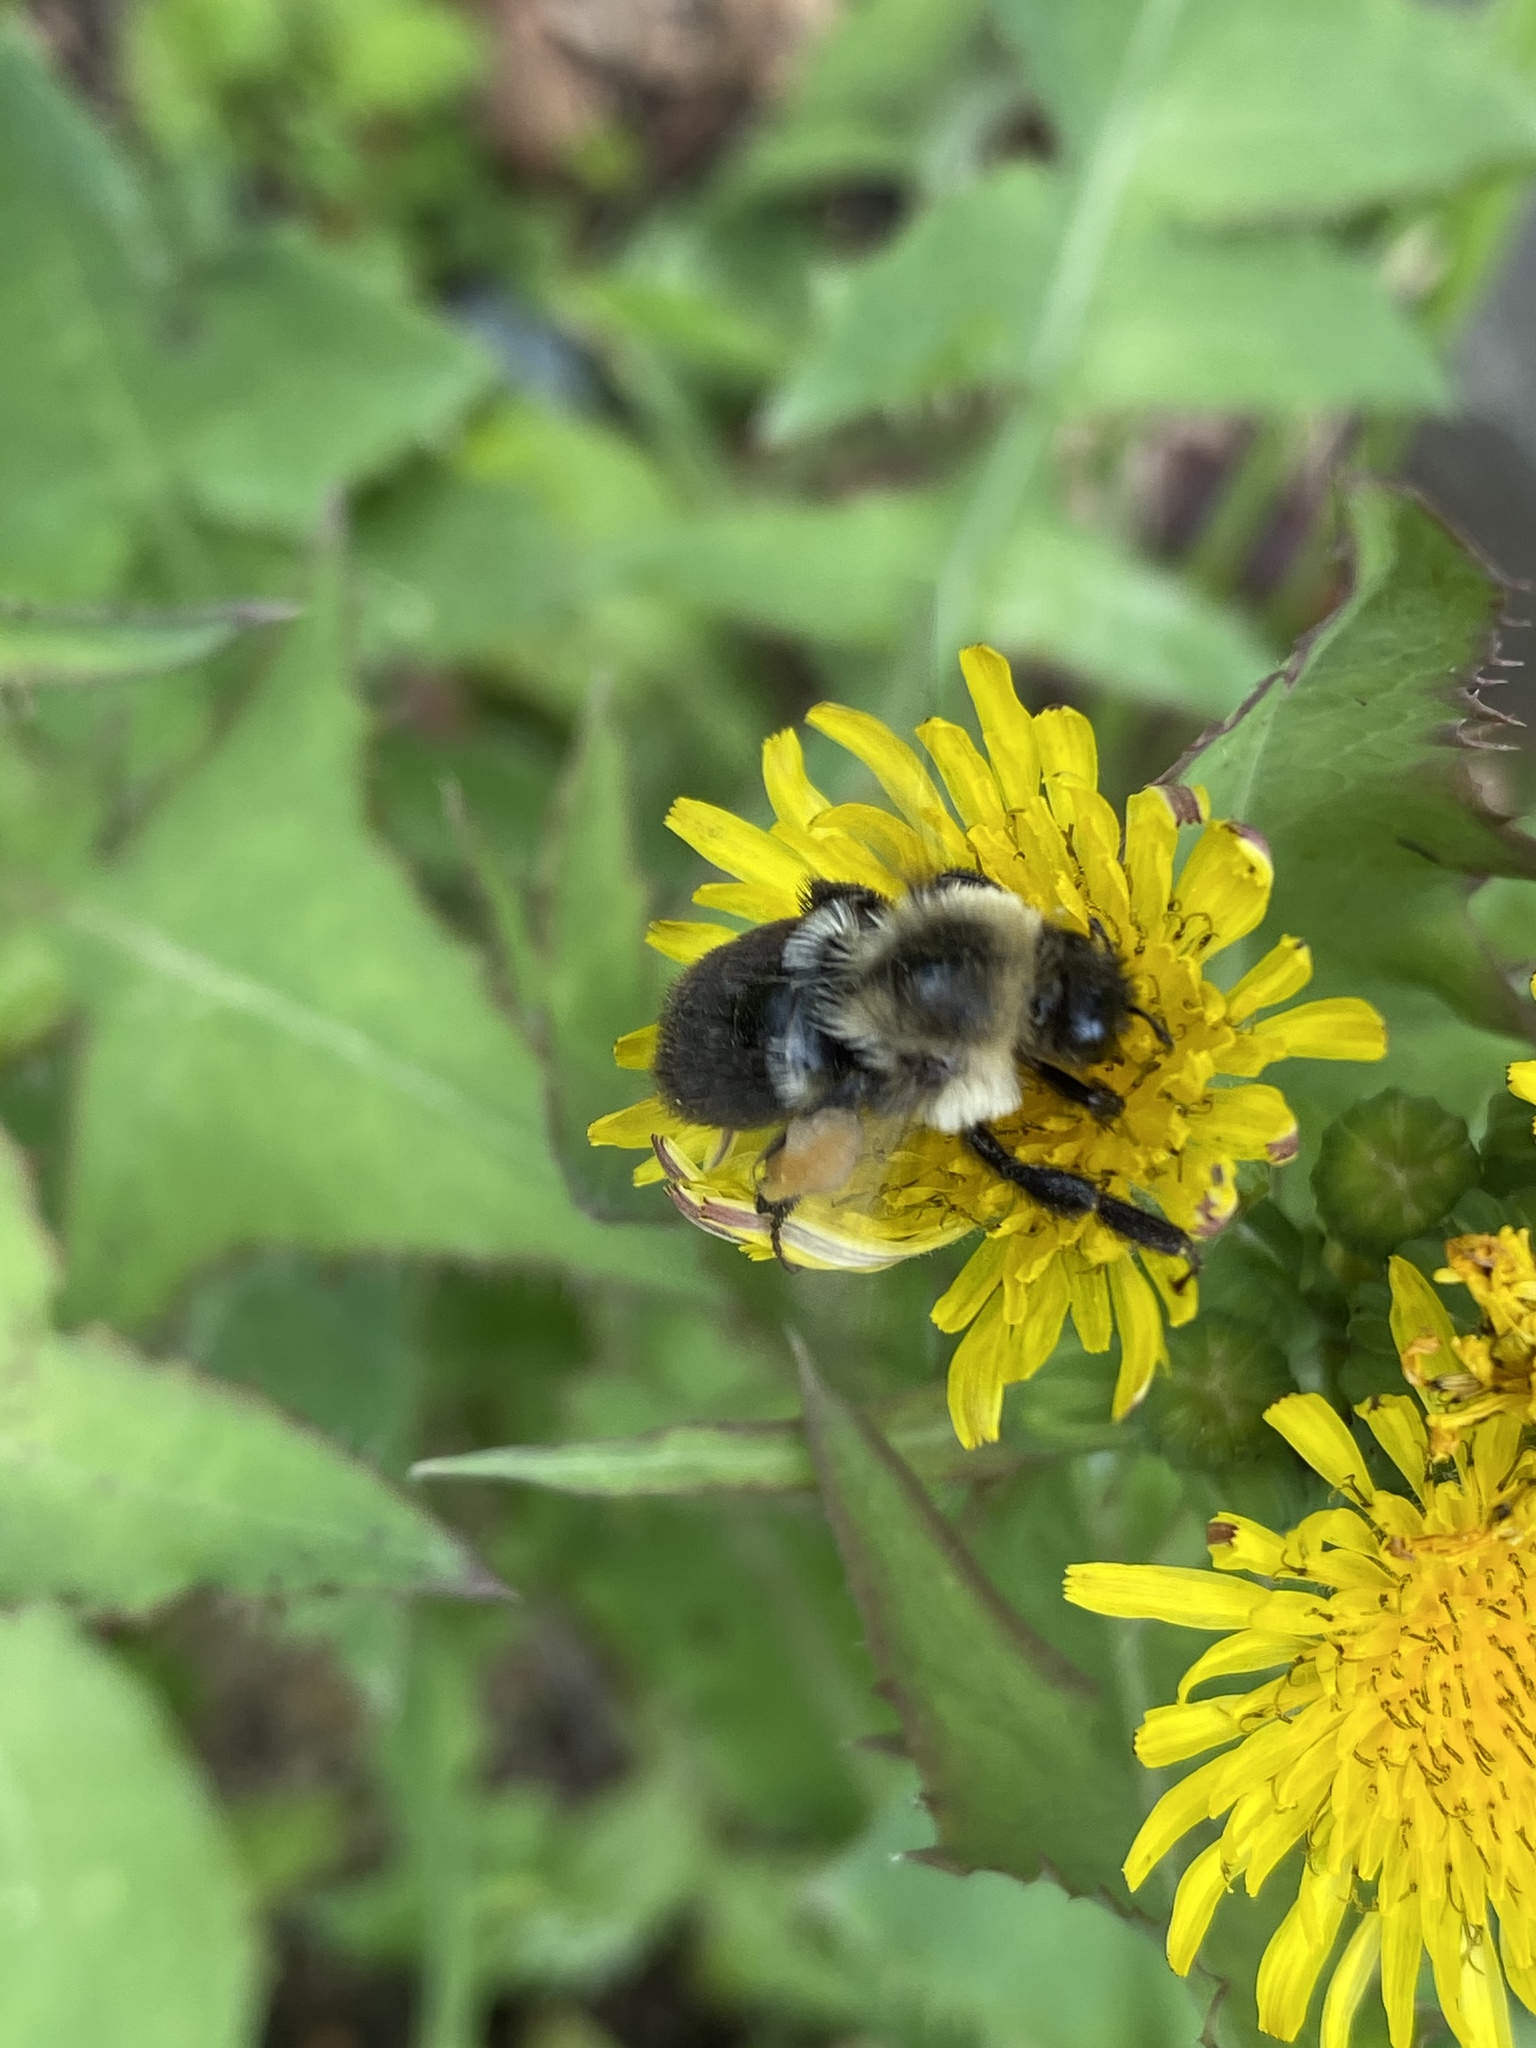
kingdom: Animalia
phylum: Arthropoda
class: Insecta
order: Hymenoptera
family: Apidae
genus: Bombus
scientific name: Bombus impatiens
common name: Common eastern bumble bee
